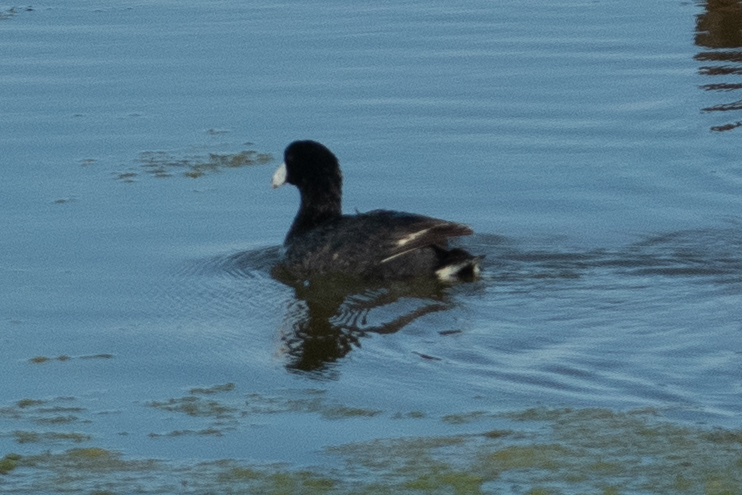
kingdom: Animalia
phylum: Chordata
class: Aves
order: Gruiformes
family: Rallidae
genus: Fulica
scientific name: Fulica americana
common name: American coot
